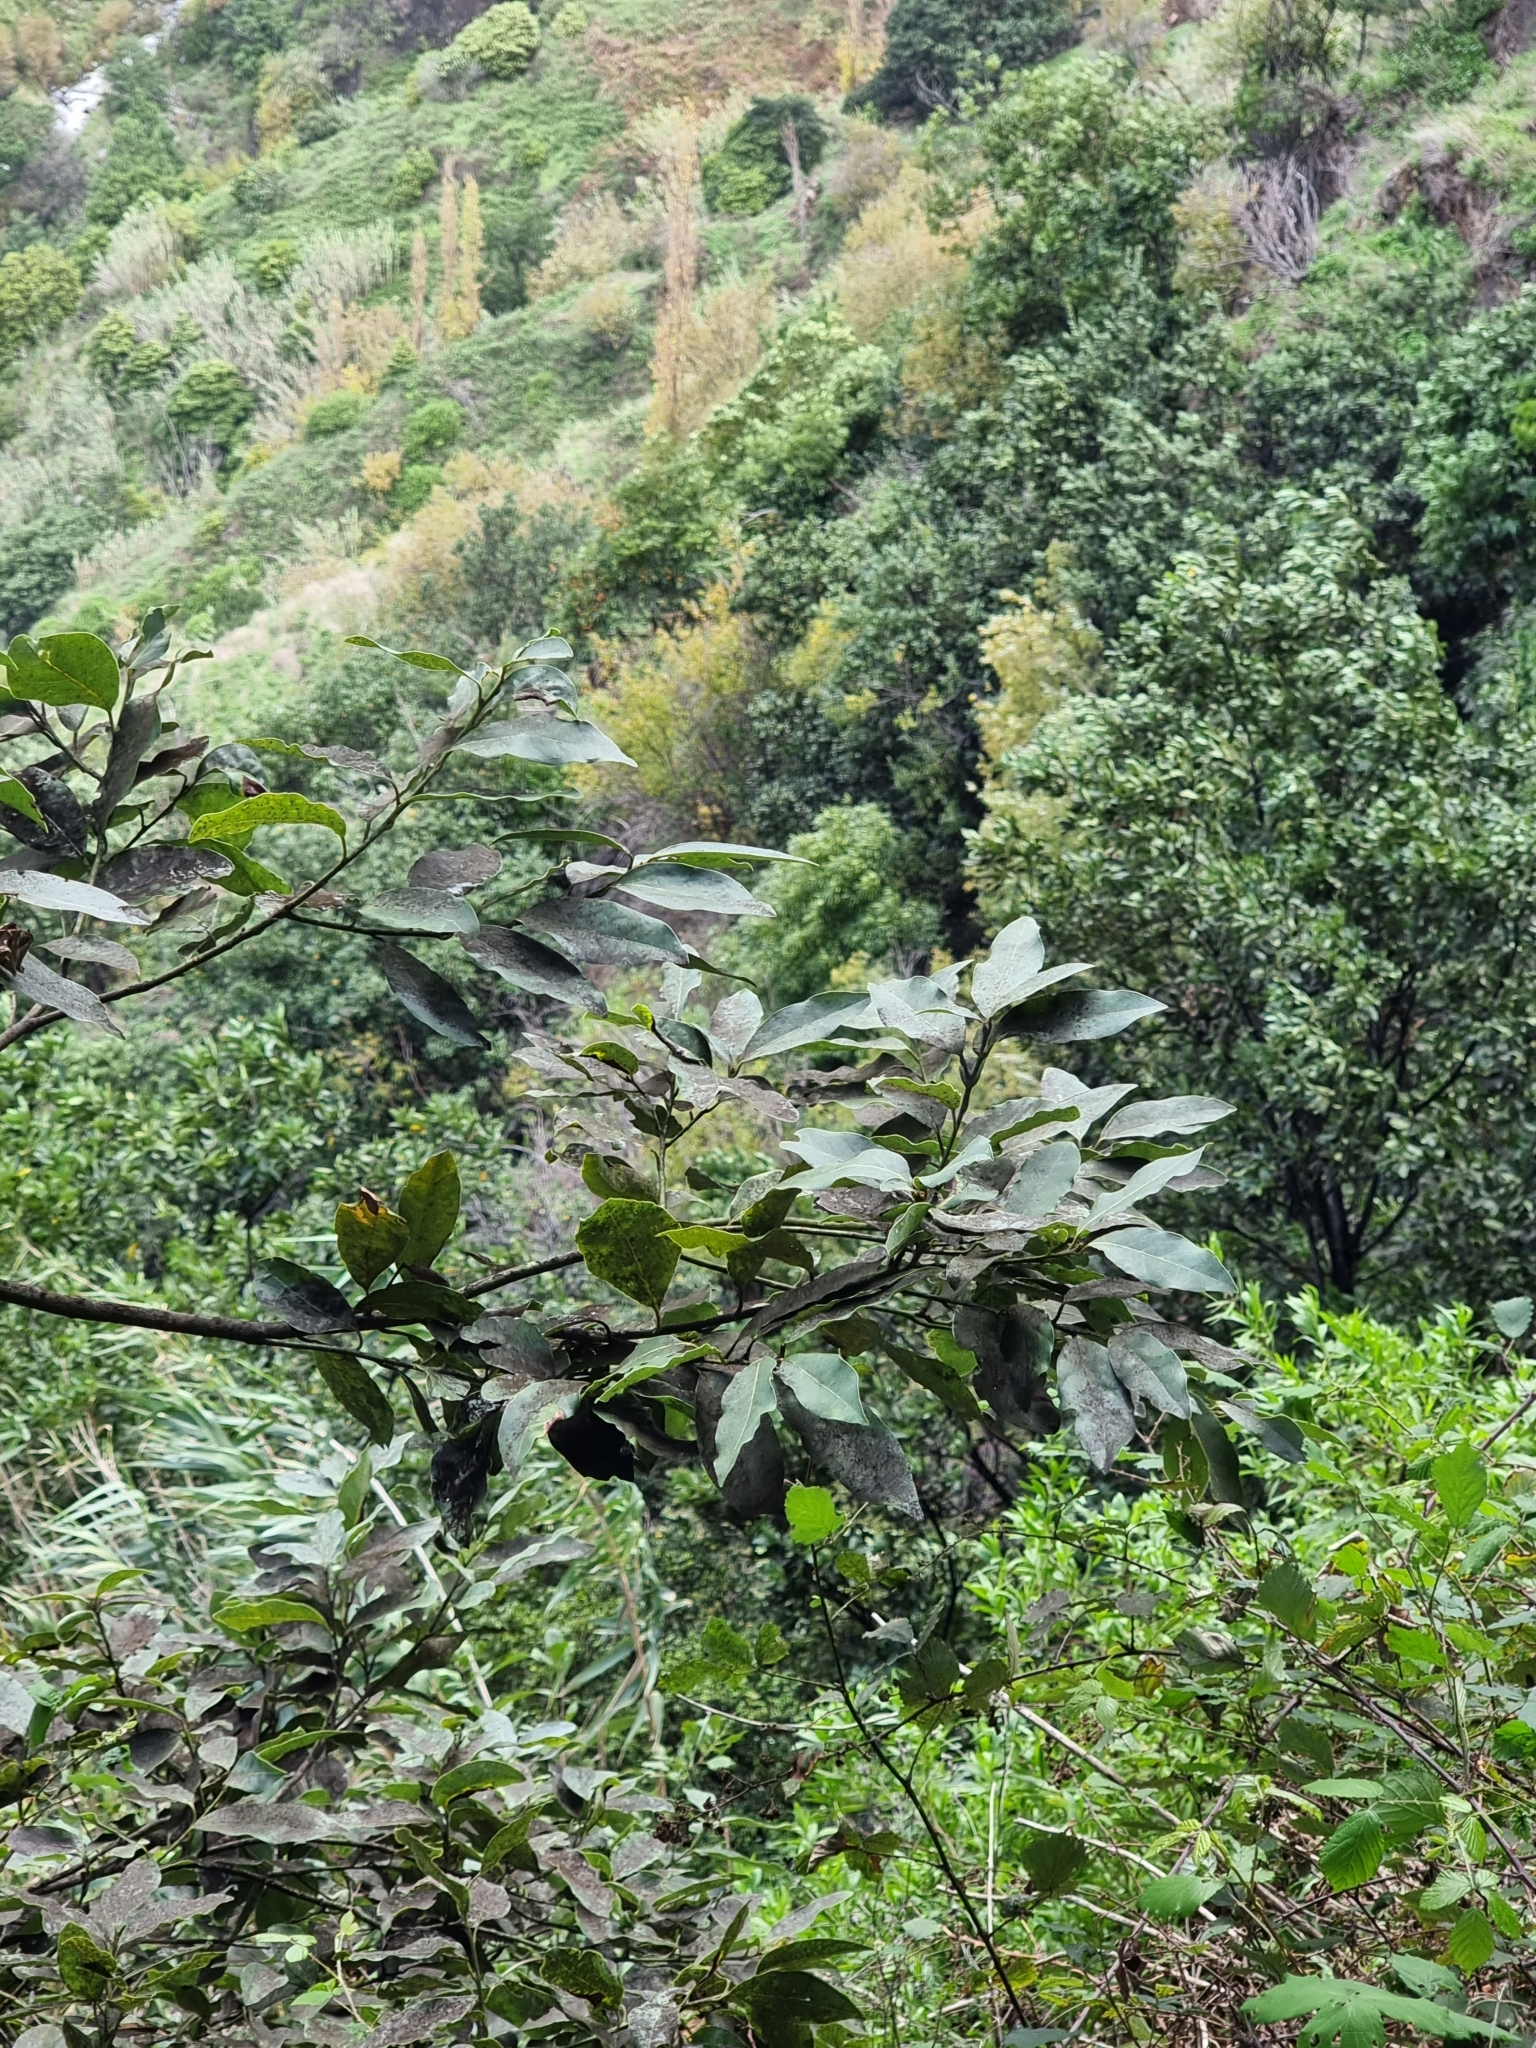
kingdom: Plantae
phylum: Tracheophyta
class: Magnoliopsida
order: Laurales
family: Lauraceae
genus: Laurus
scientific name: Laurus novocanariensis
